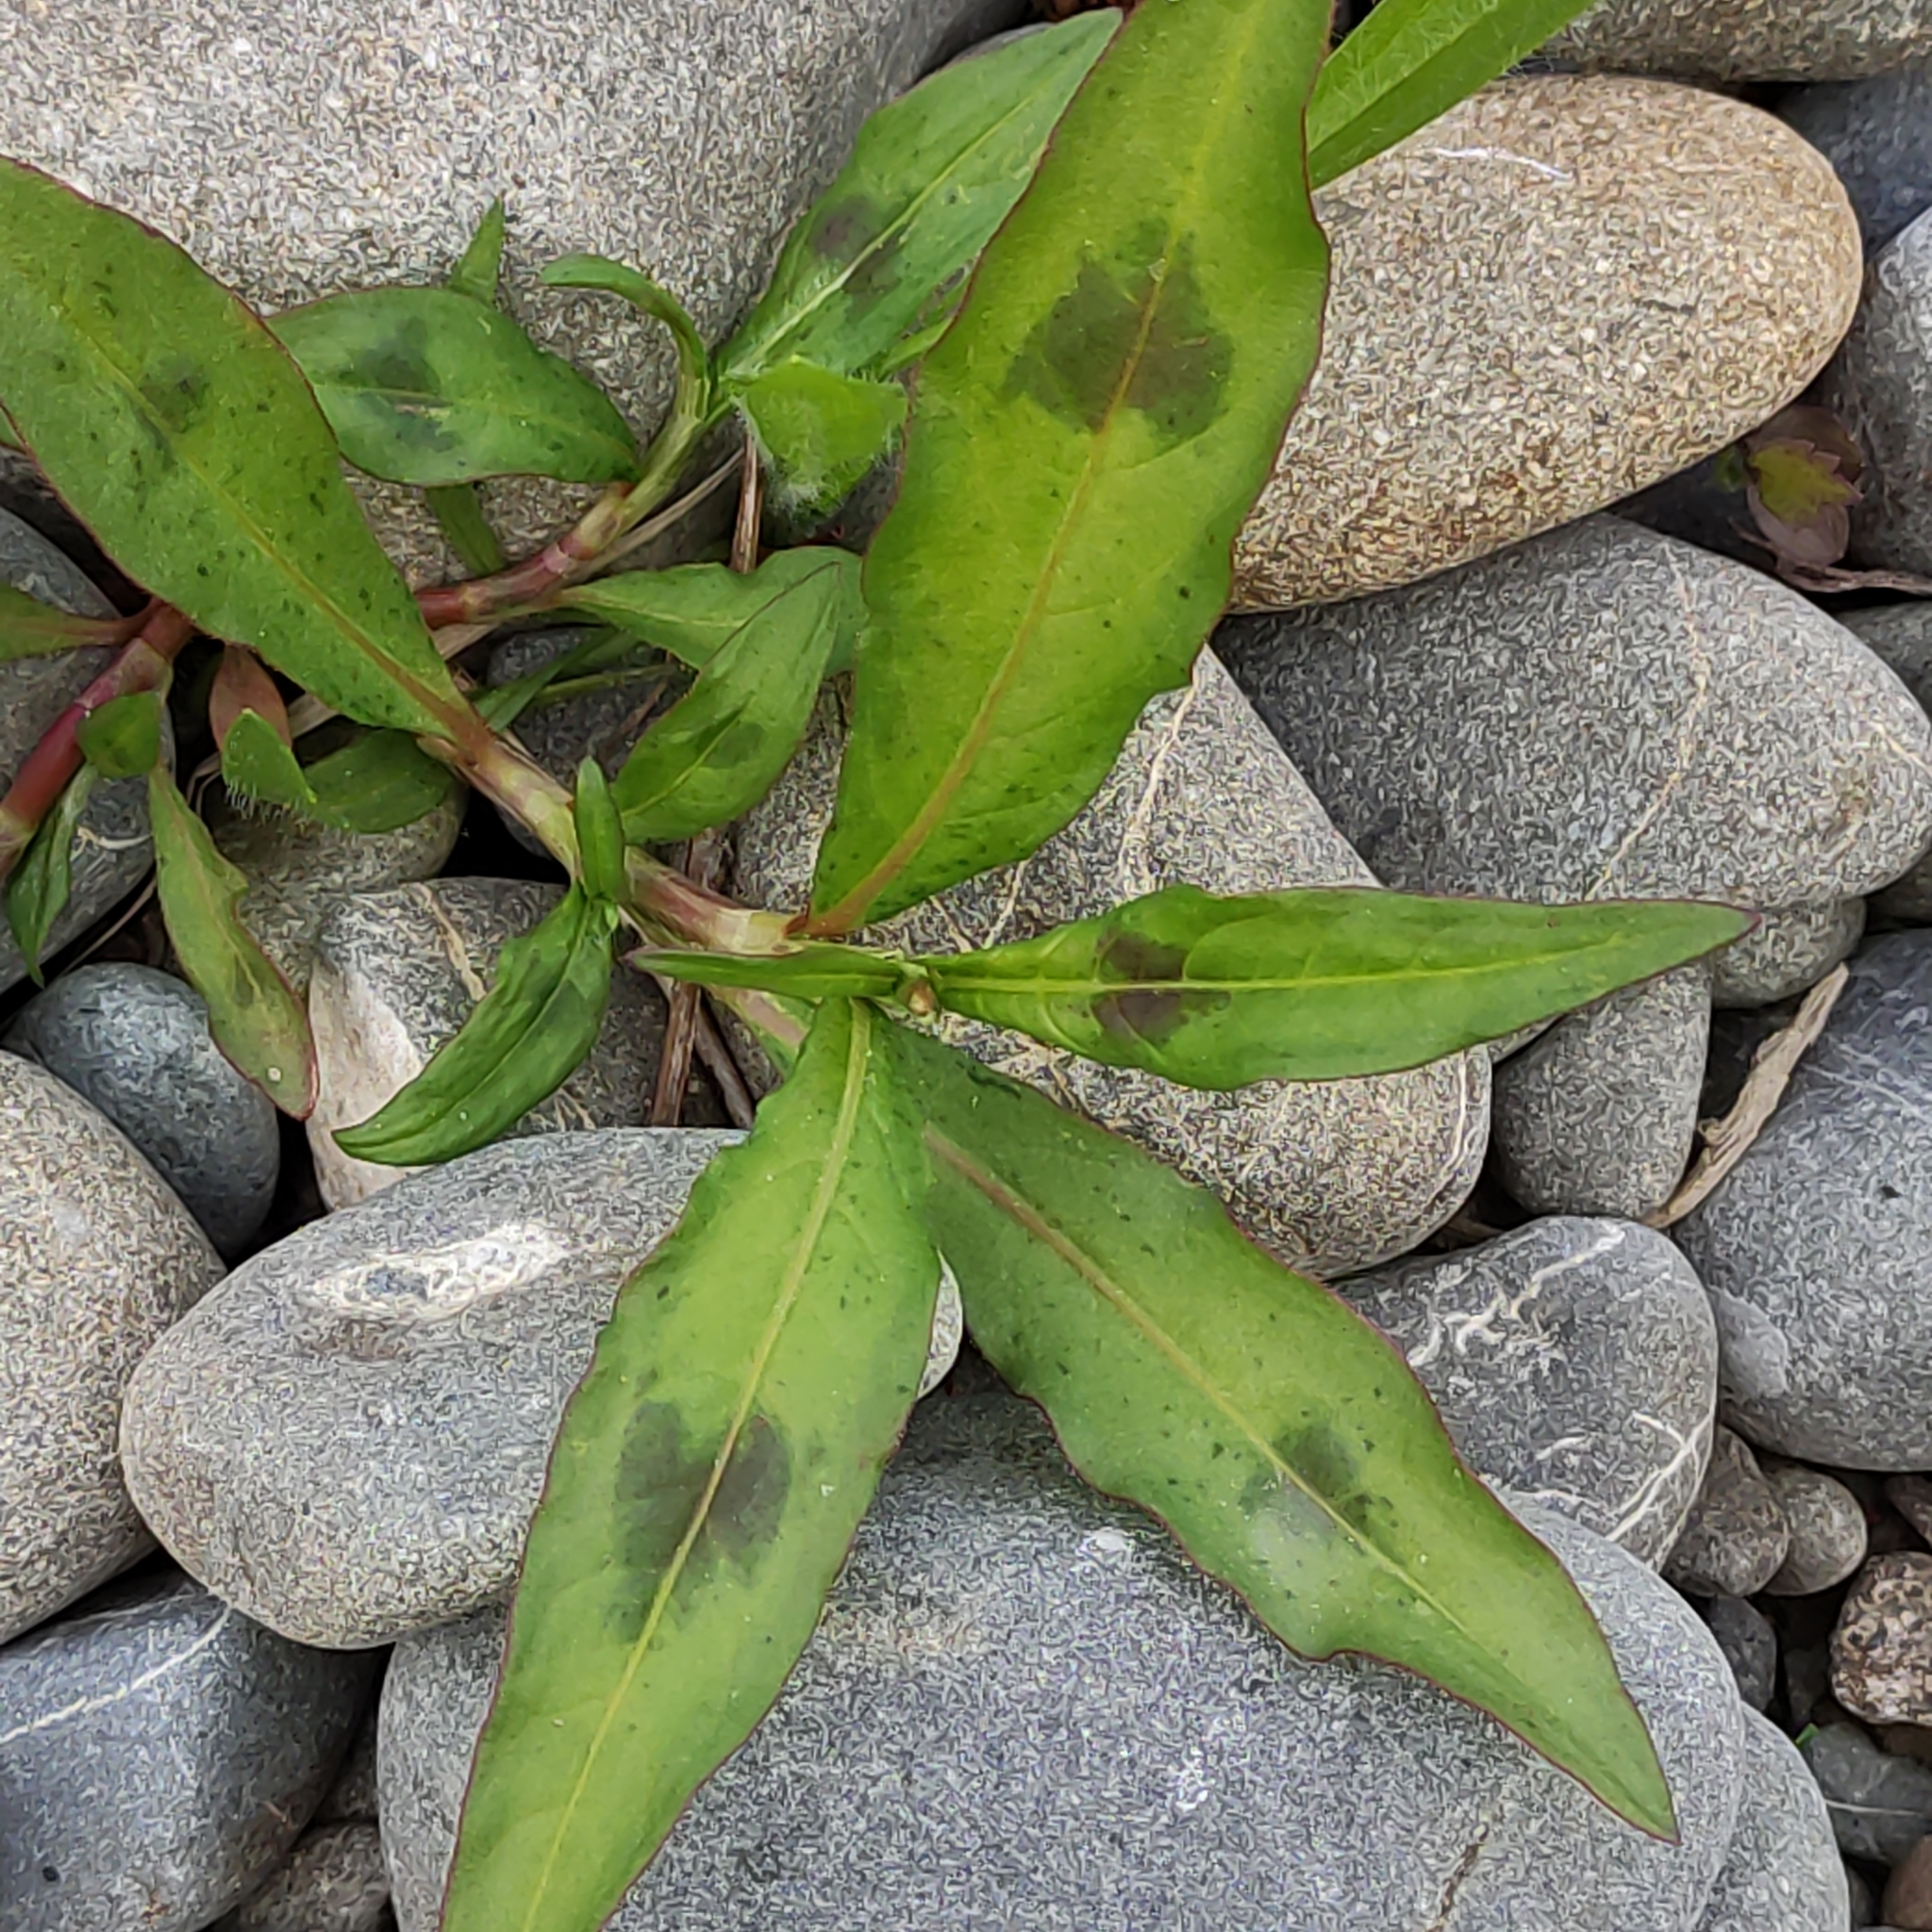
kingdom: Plantae
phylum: Tracheophyta
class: Magnoliopsida
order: Caryophyllales
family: Polygonaceae
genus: Persicaria
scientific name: Persicaria maculosa
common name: Redshank
